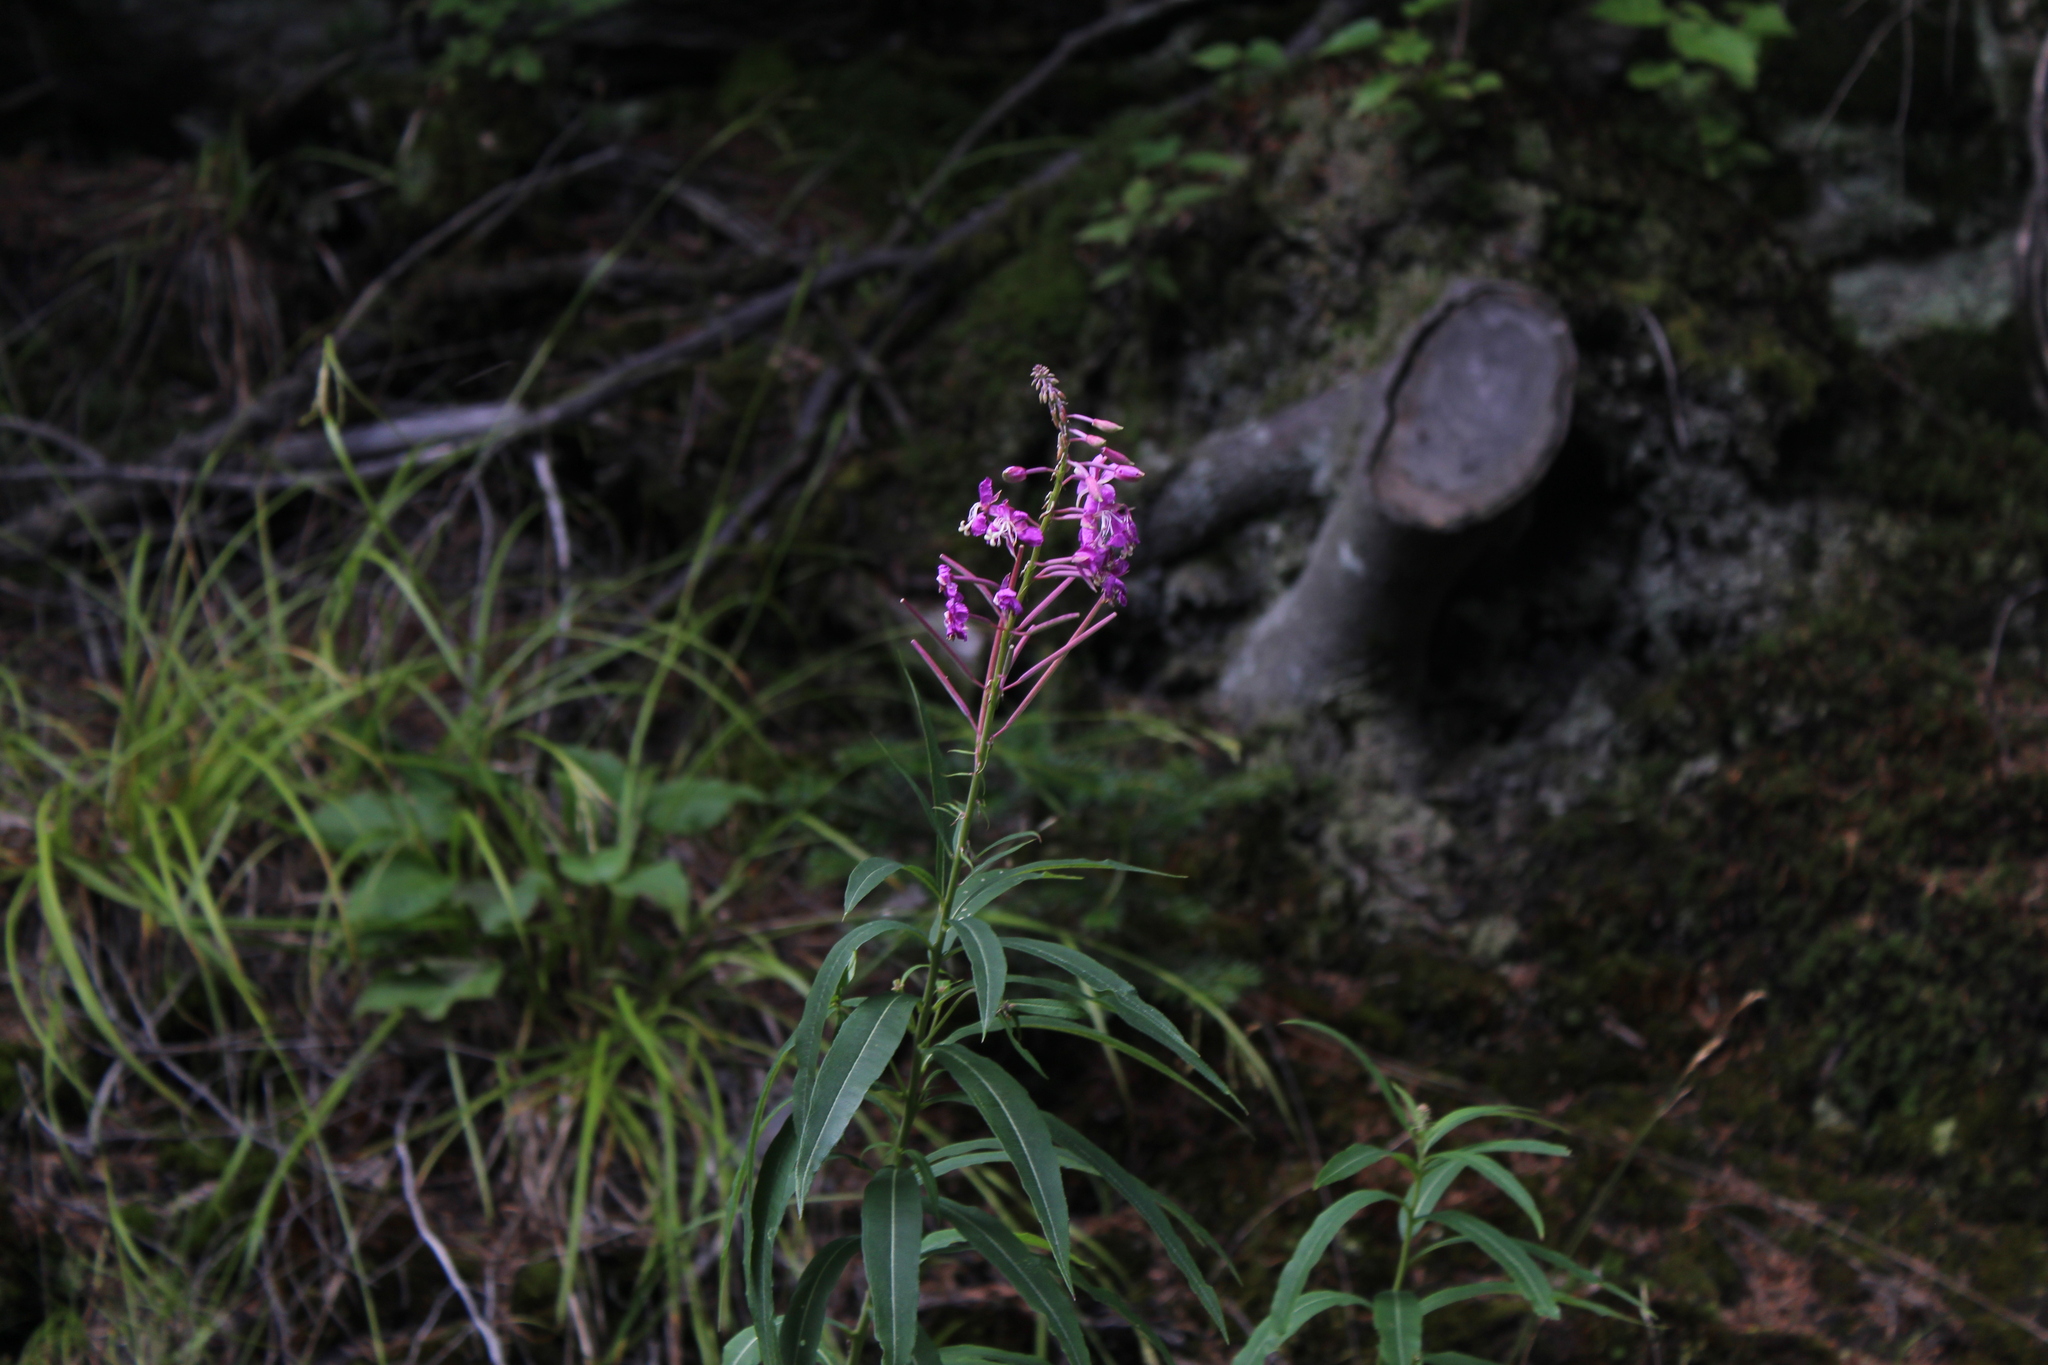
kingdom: Plantae
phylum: Tracheophyta
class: Magnoliopsida
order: Myrtales
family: Onagraceae
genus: Chamaenerion
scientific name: Chamaenerion angustifolium
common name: Fireweed
